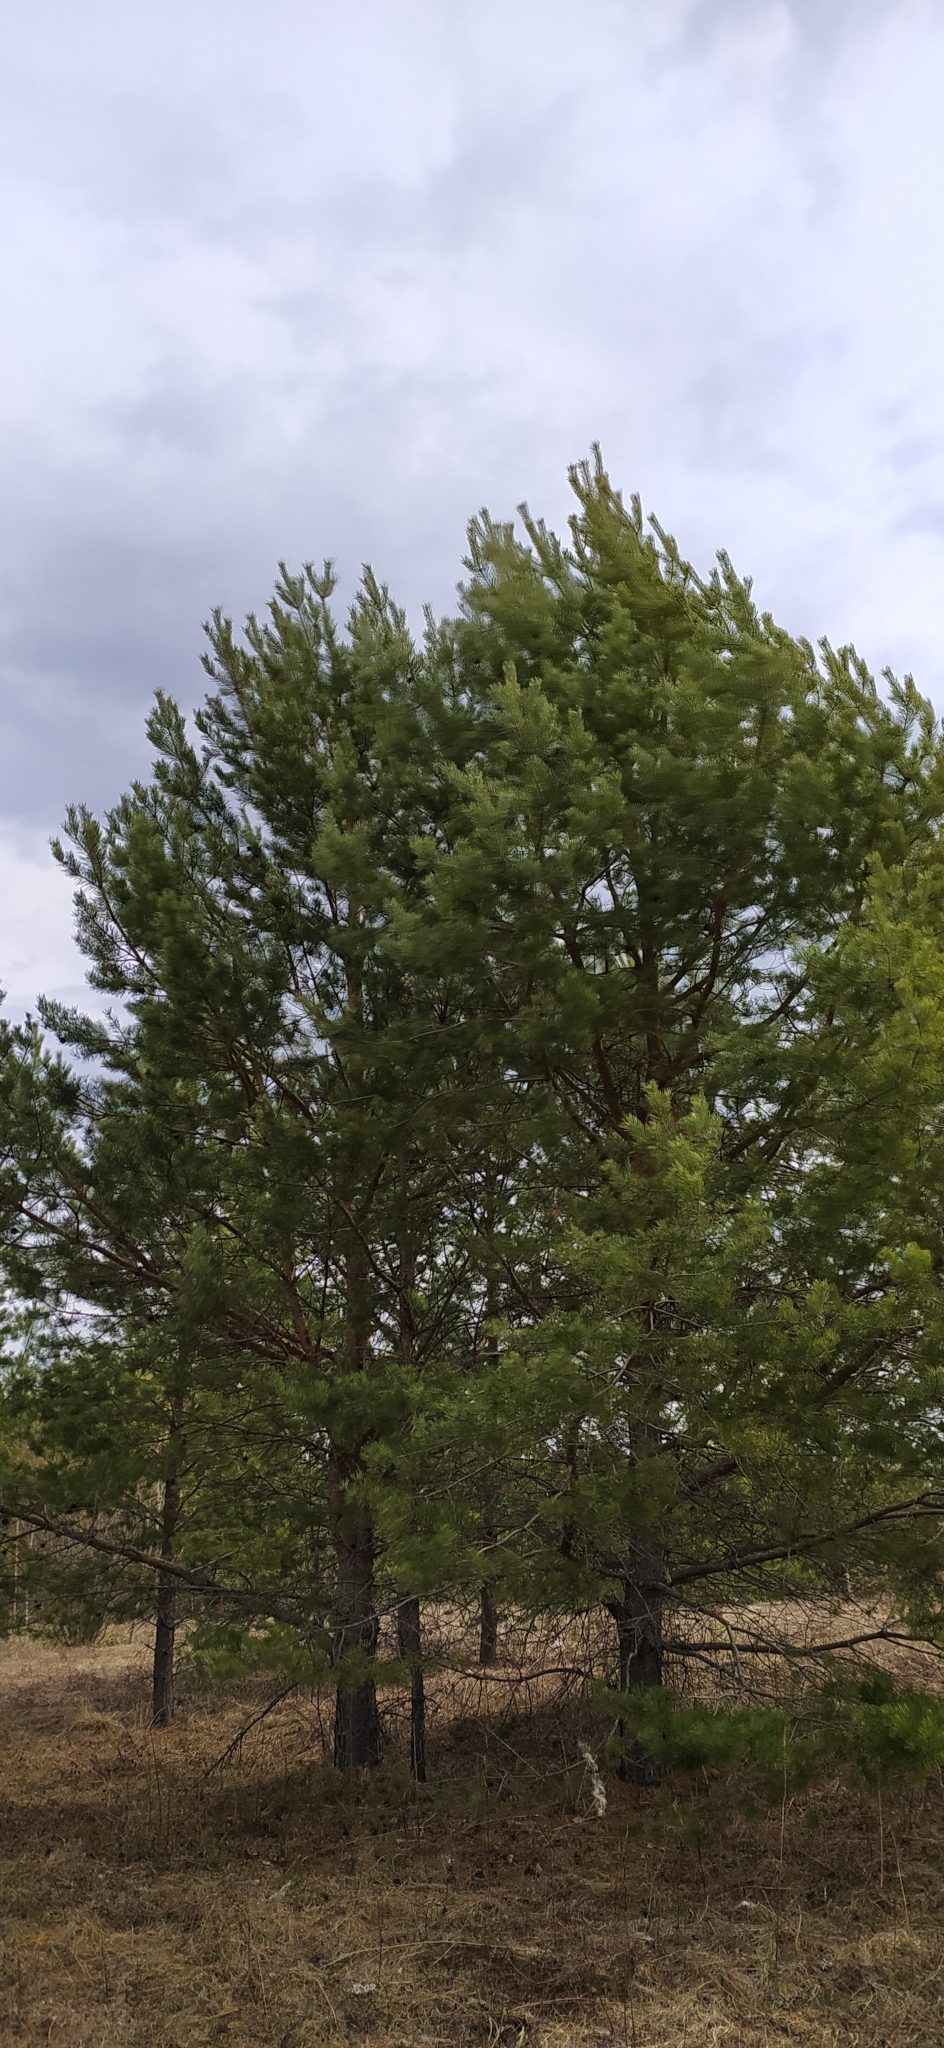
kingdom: Plantae
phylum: Tracheophyta
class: Pinopsida
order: Pinales
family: Pinaceae
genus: Pinus
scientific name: Pinus sylvestris
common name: Scots pine
